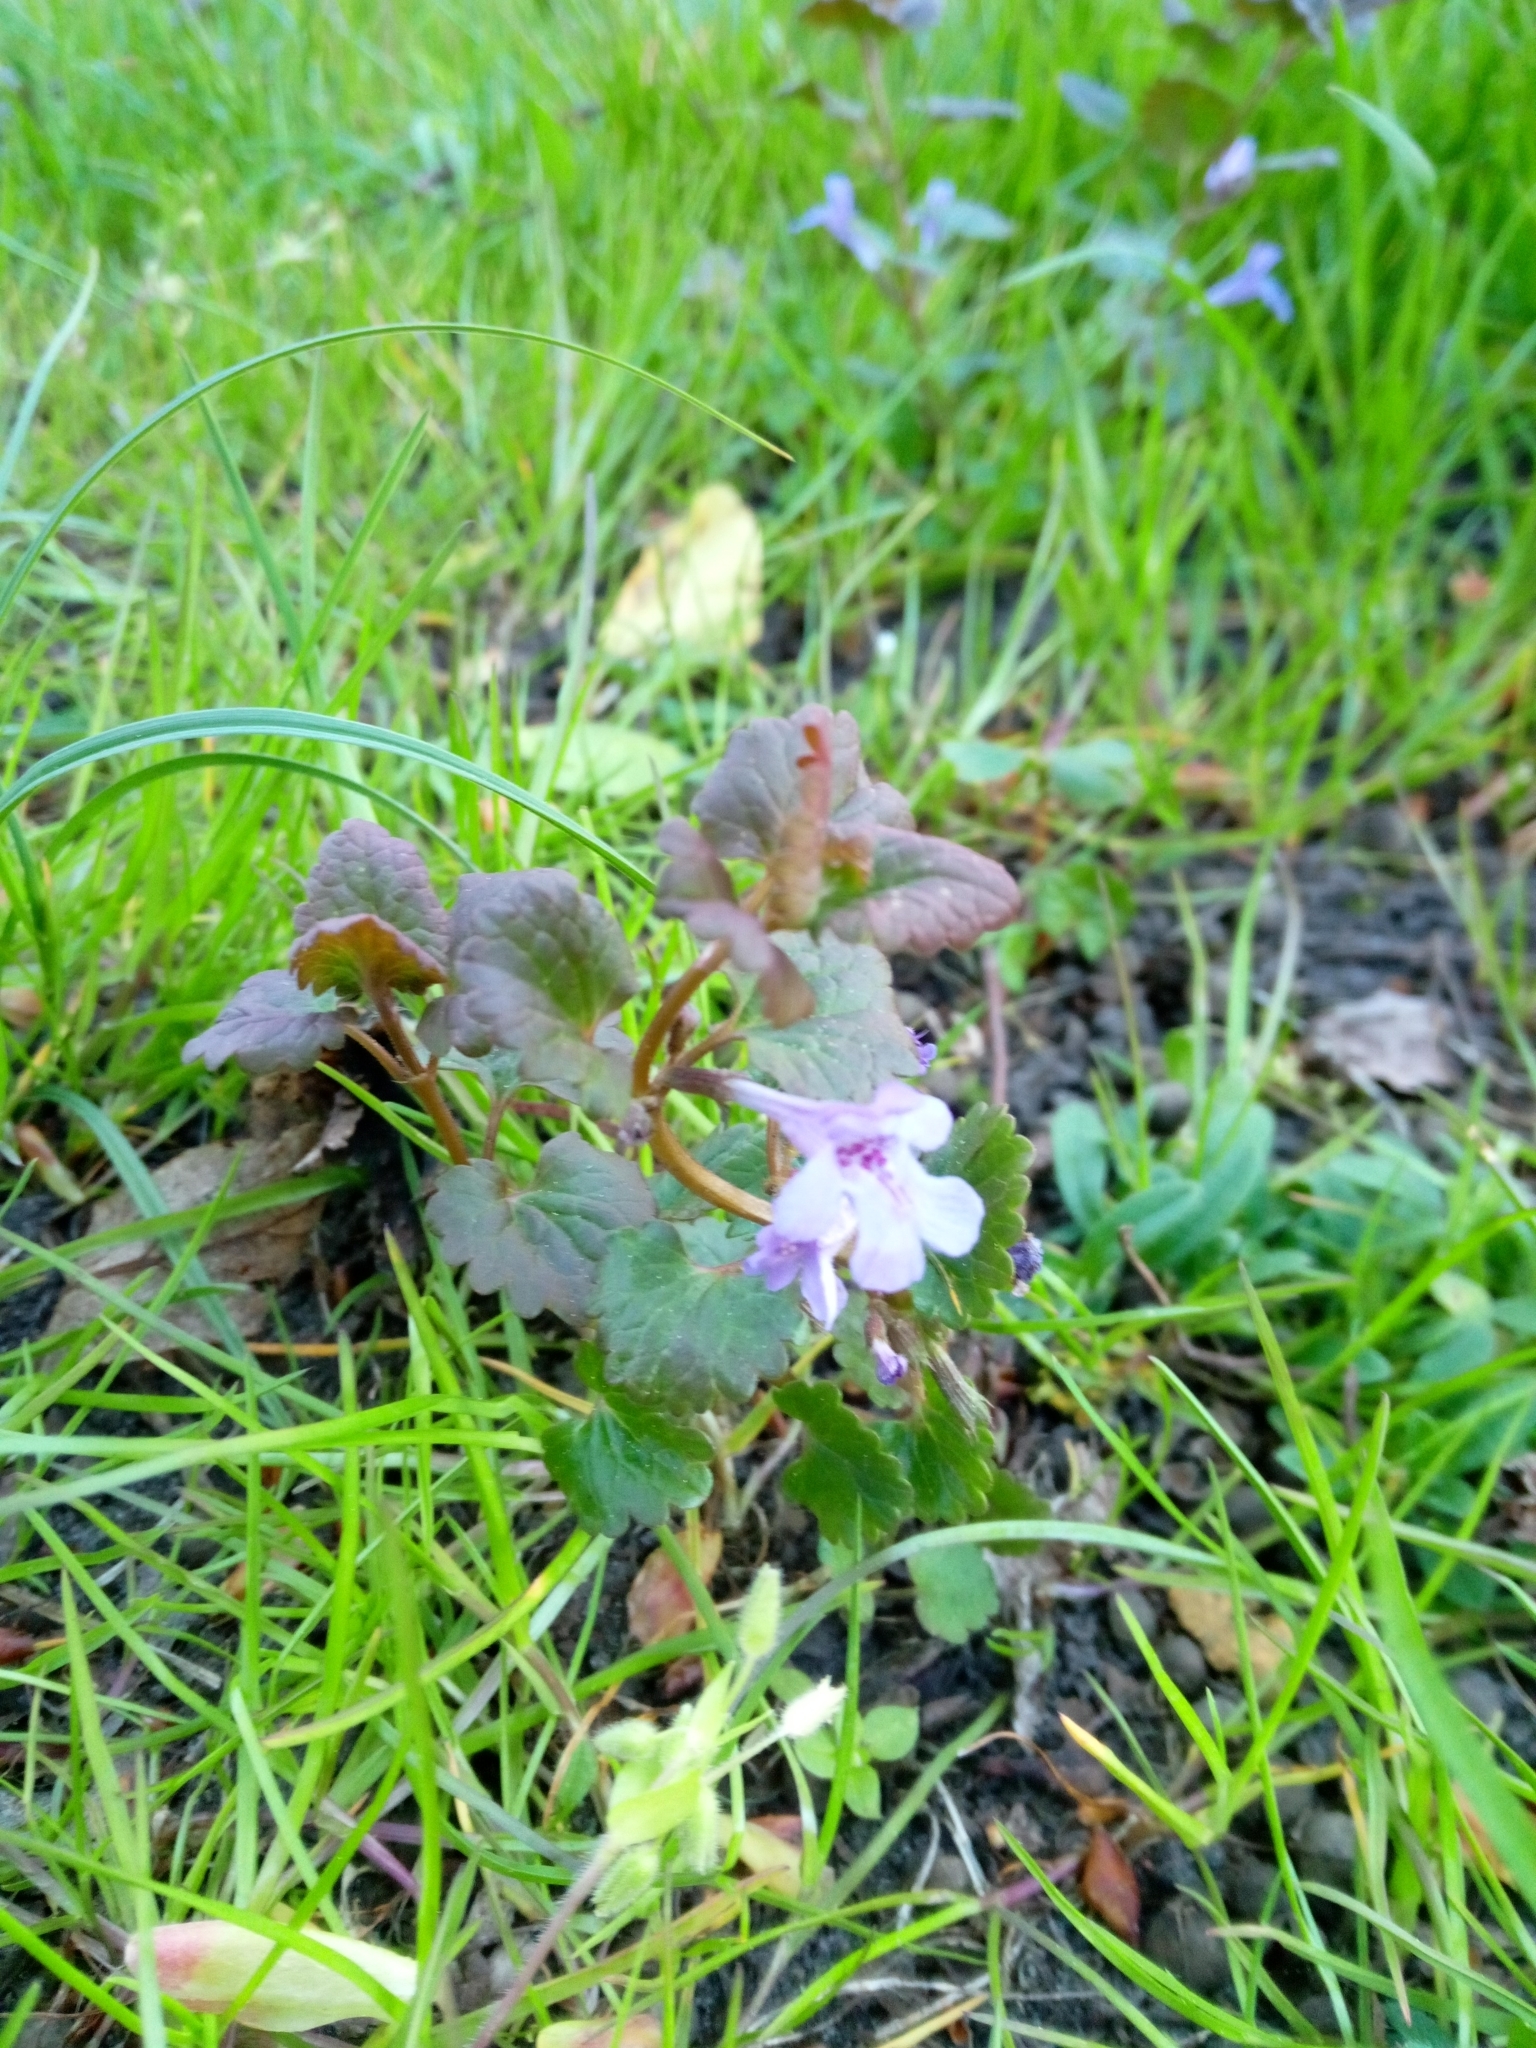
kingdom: Plantae
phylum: Tracheophyta
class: Magnoliopsida
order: Lamiales
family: Lamiaceae
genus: Glechoma
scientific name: Glechoma hederacea
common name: Ground ivy
